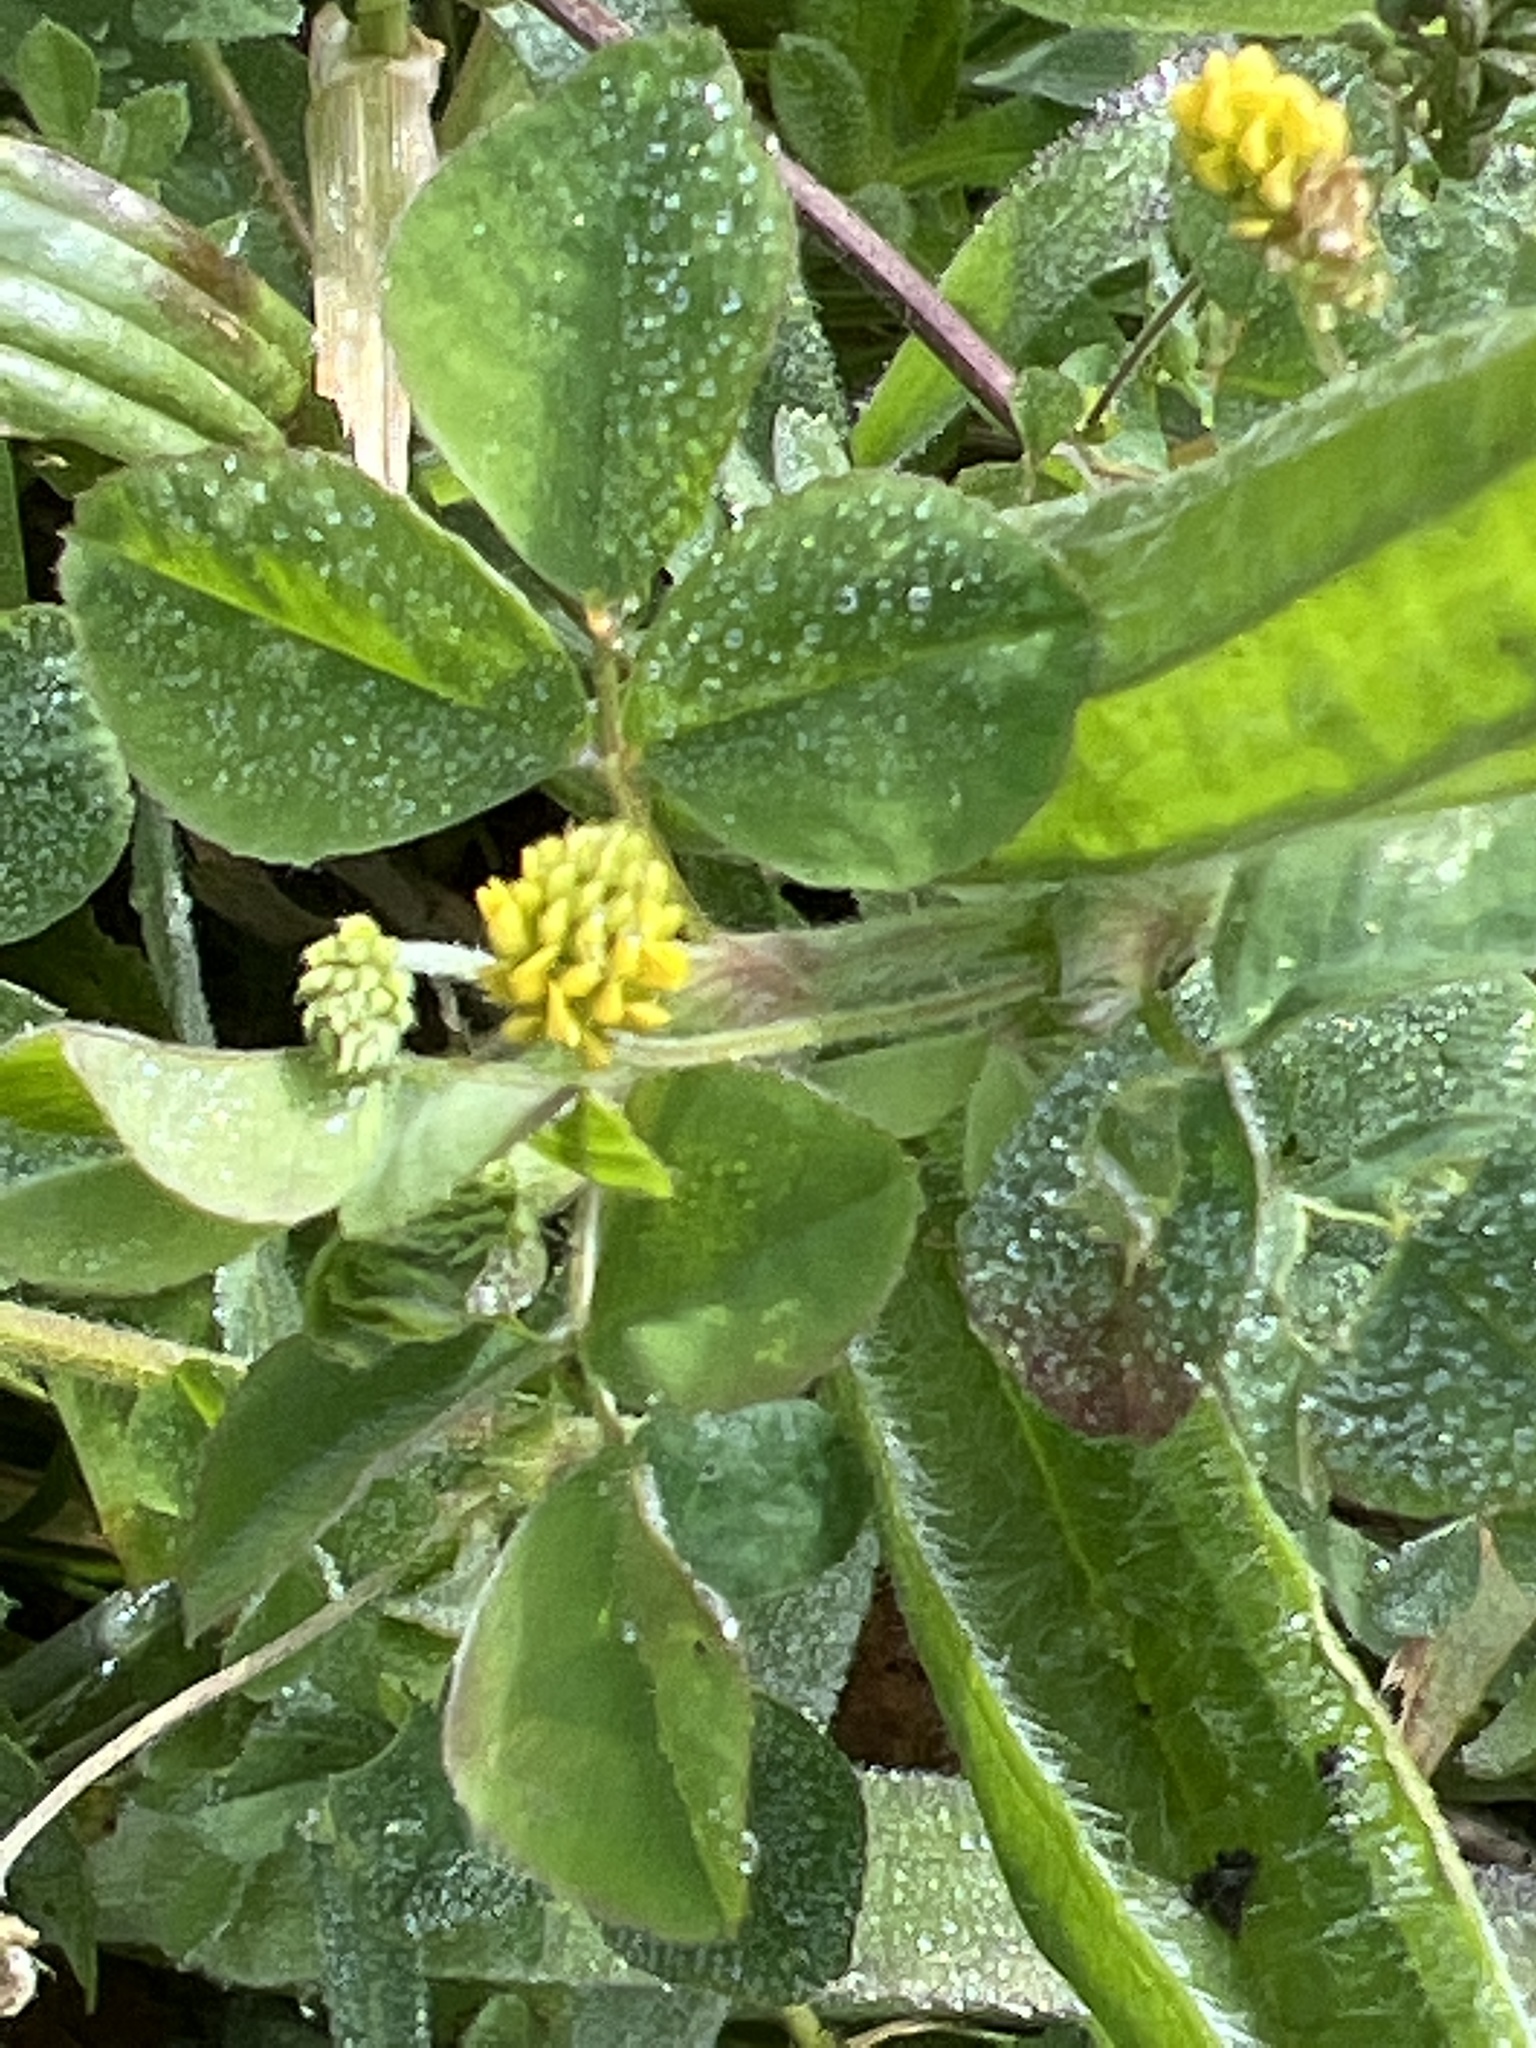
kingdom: Plantae
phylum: Tracheophyta
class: Magnoliopsida
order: Fabales
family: Fabaceae
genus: Medicago
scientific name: Medicago lupulina
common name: Black medick
